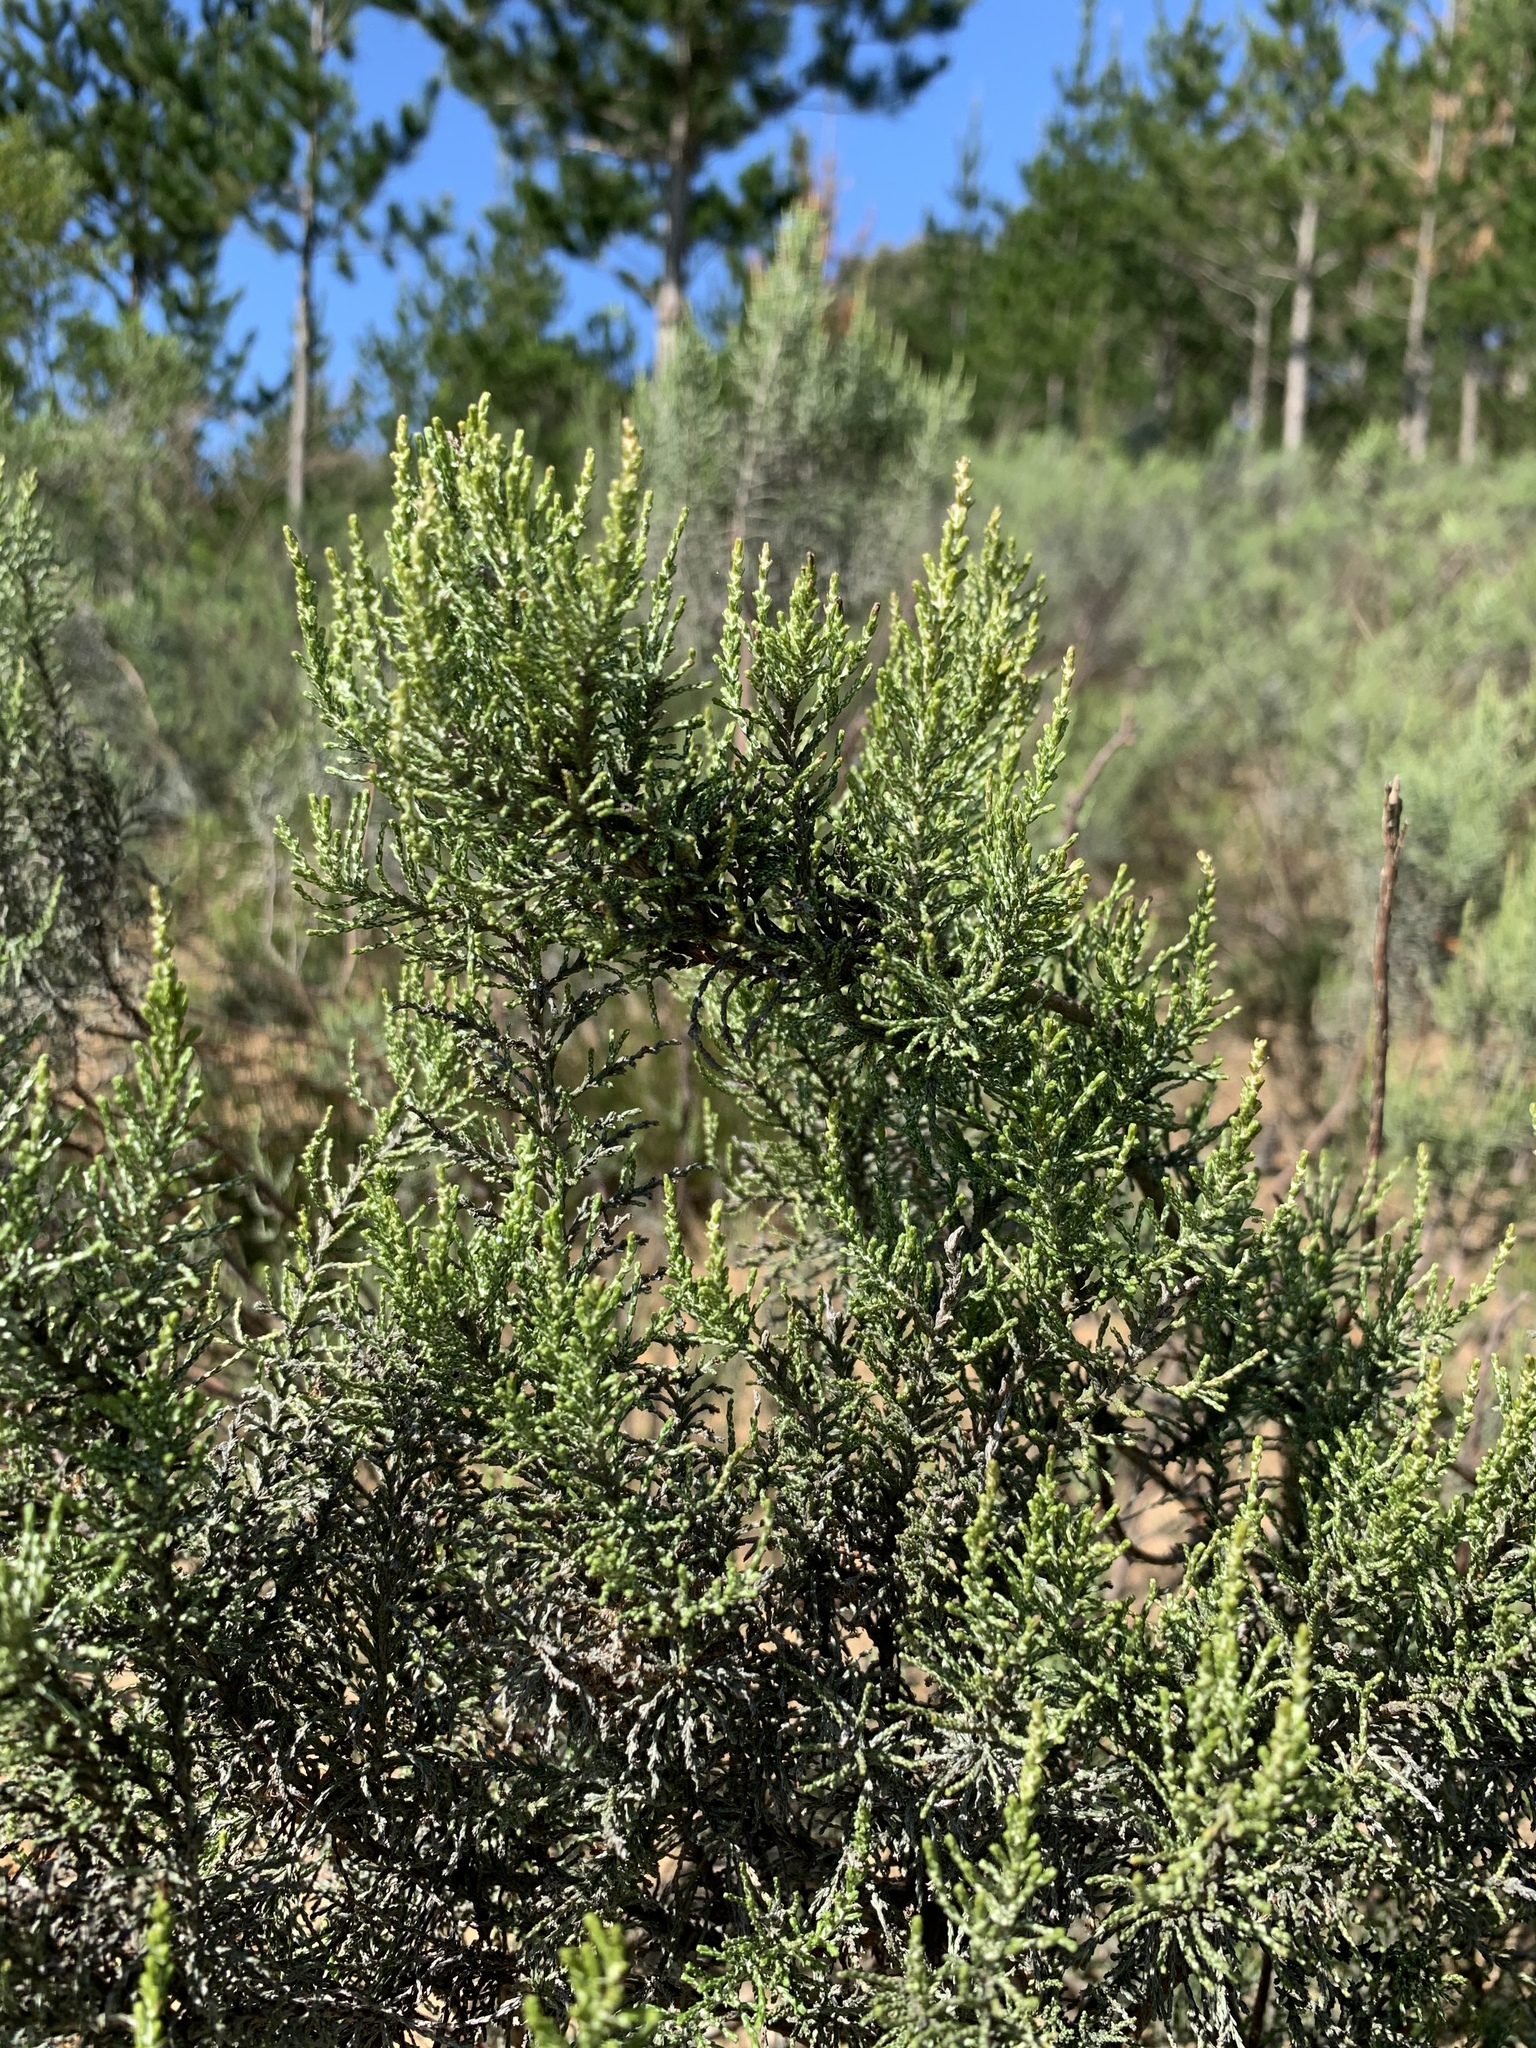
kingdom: Plantae
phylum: Tracheophyta
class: Magnoliopsida
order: Asterales
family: Asteraceae
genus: Dicerothamnus
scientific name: Dicerothamnus rhinocerotis
